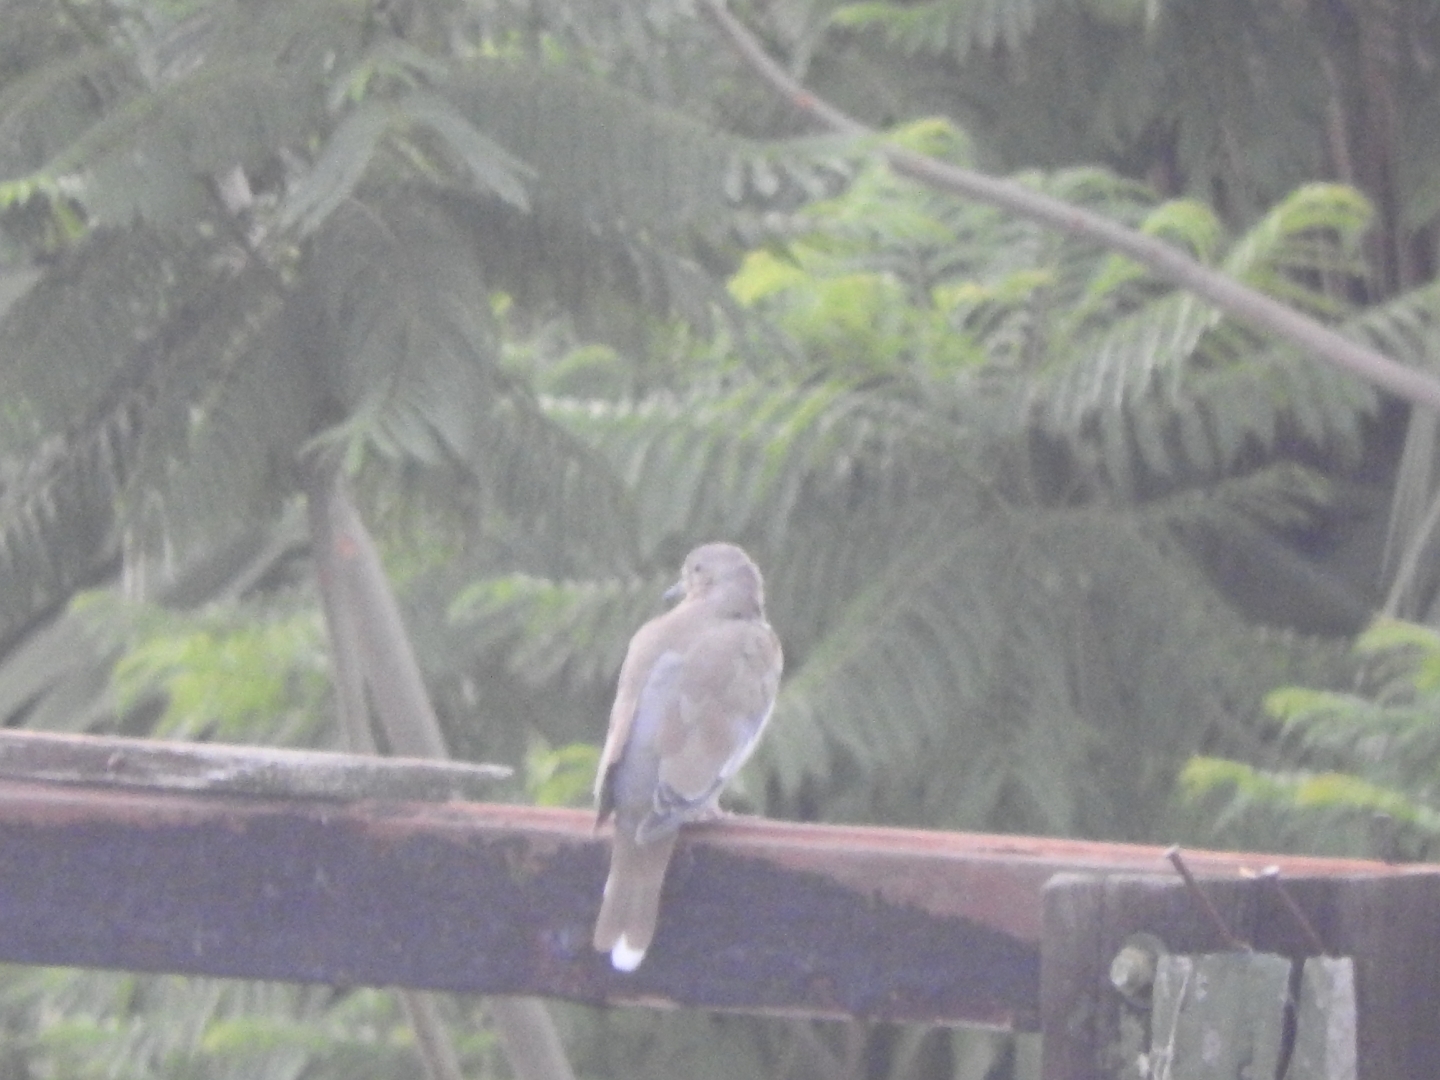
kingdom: Animalia
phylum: Chordata
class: Aves
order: Columbiformes
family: Columbidae
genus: Zenaida
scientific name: Zenaida asiatica
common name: White-winged dove
